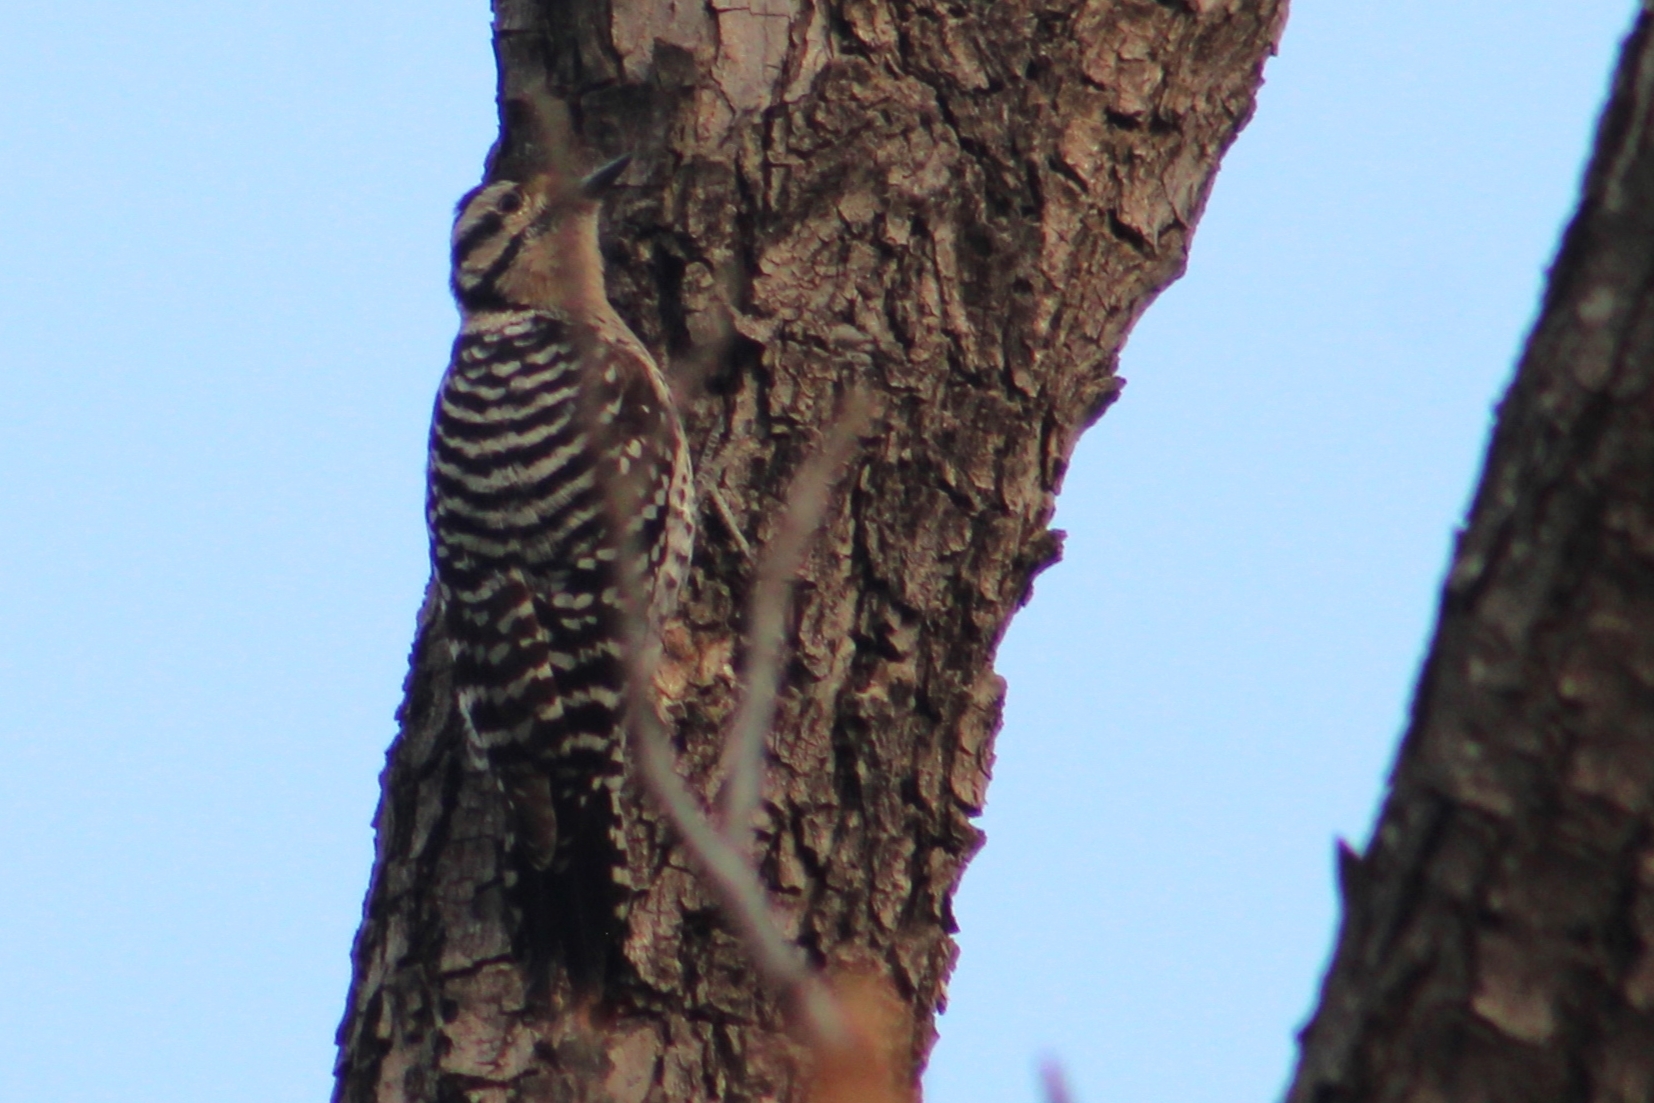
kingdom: Animalia
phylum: Chordata
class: Aves
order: Piciformes
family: Picidae
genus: Dryobates
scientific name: Dryobates scalaris
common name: Ladder-backed woodpecker
